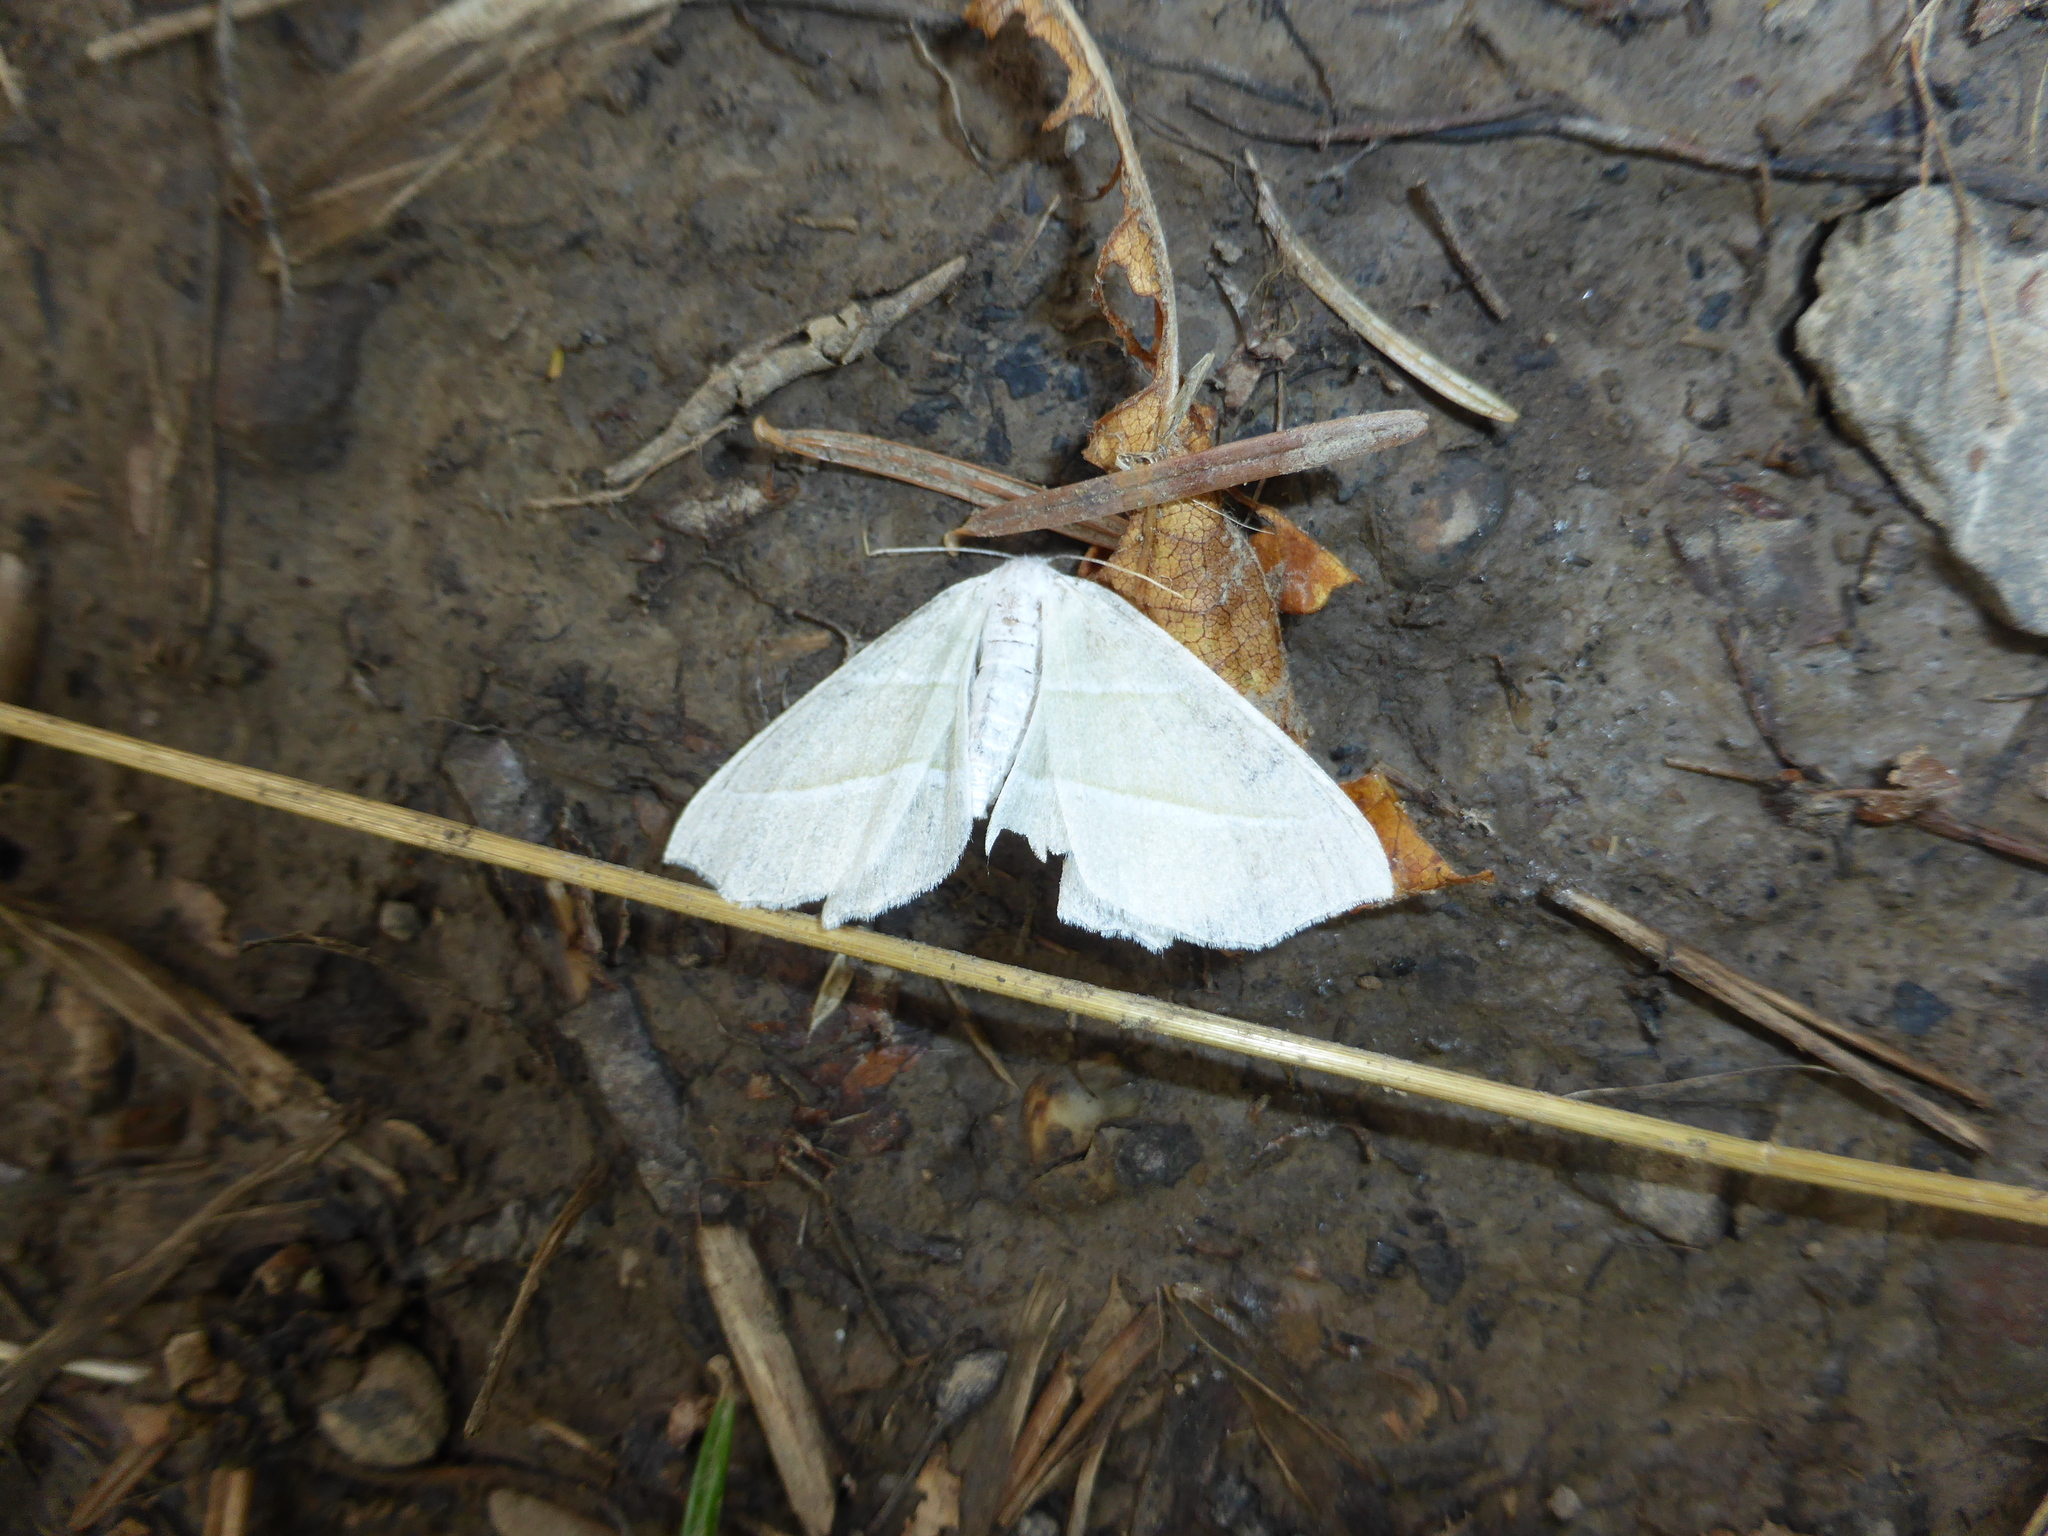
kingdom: Animalia
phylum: Arthropoda
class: Insecta
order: Lepidoptera
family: Geometridae
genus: Campaea
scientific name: Campaea margaritaria
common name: Light emerald
